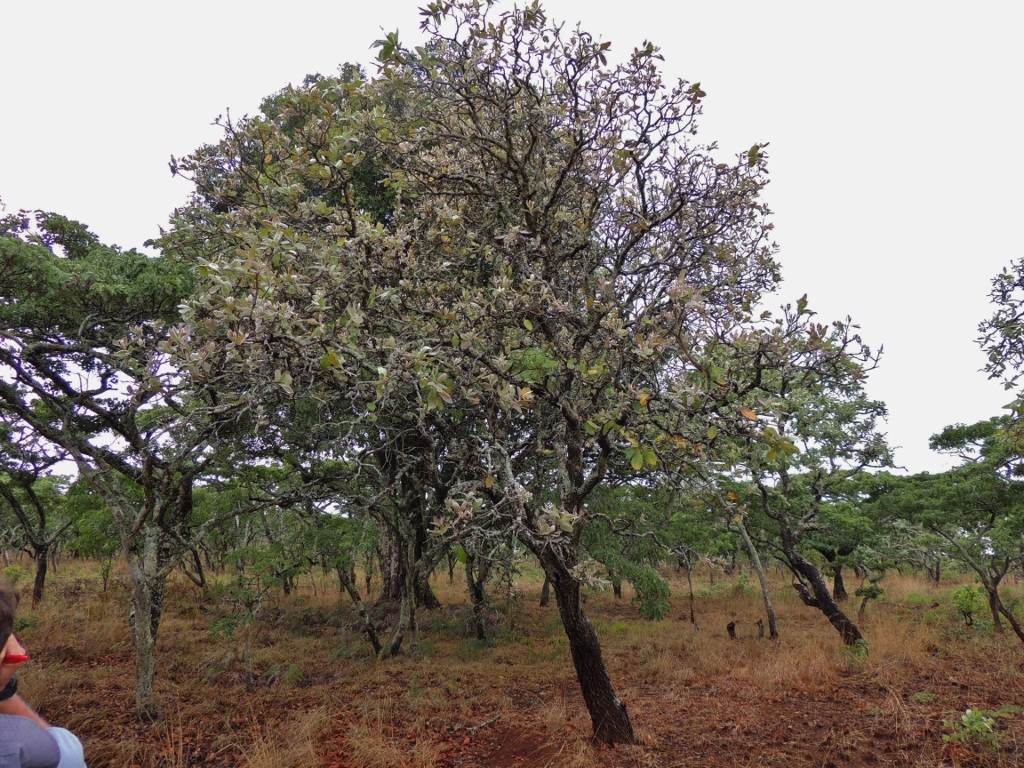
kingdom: Plantae
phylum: Tracheophyta
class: Magnoliopsida
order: Proteales
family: Proteaceae
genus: Faurea
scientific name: Faurea rochetiana
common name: Broad-leaved beech
